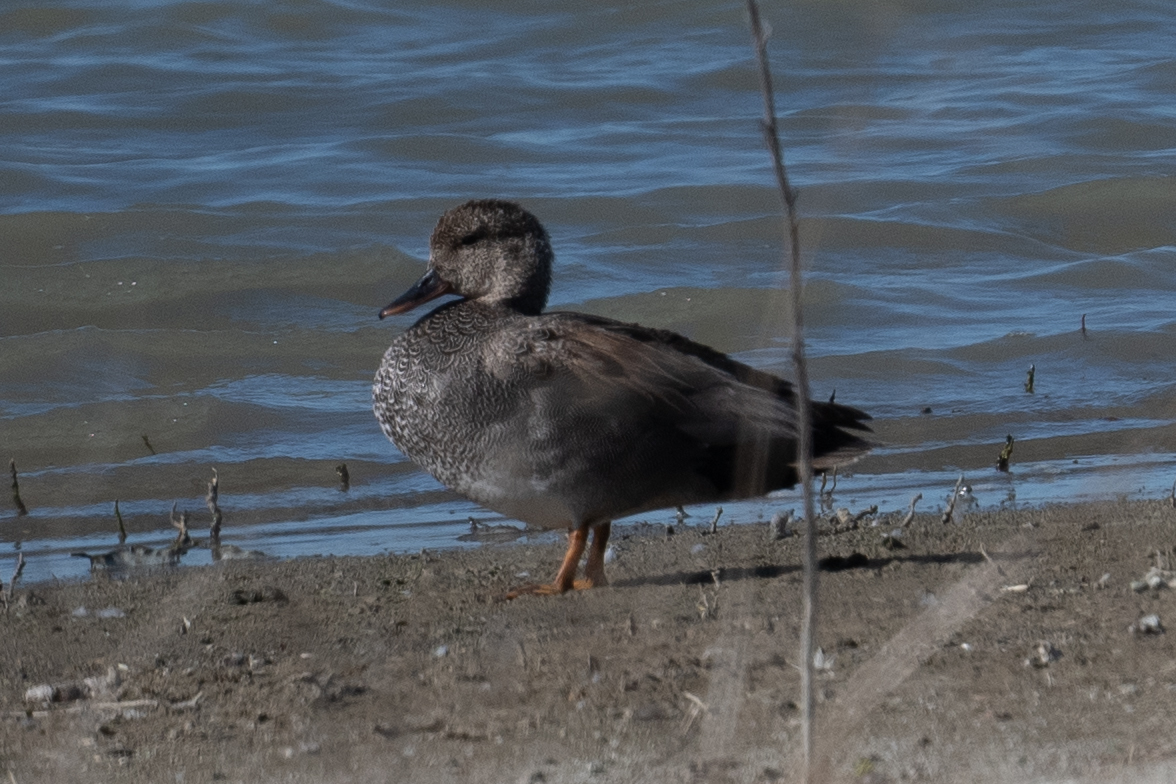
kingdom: Animalia
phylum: Chordata
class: Aves
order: Anseriformes
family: Anatidae
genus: Mareca
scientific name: Mareca strepera
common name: Gadwall
